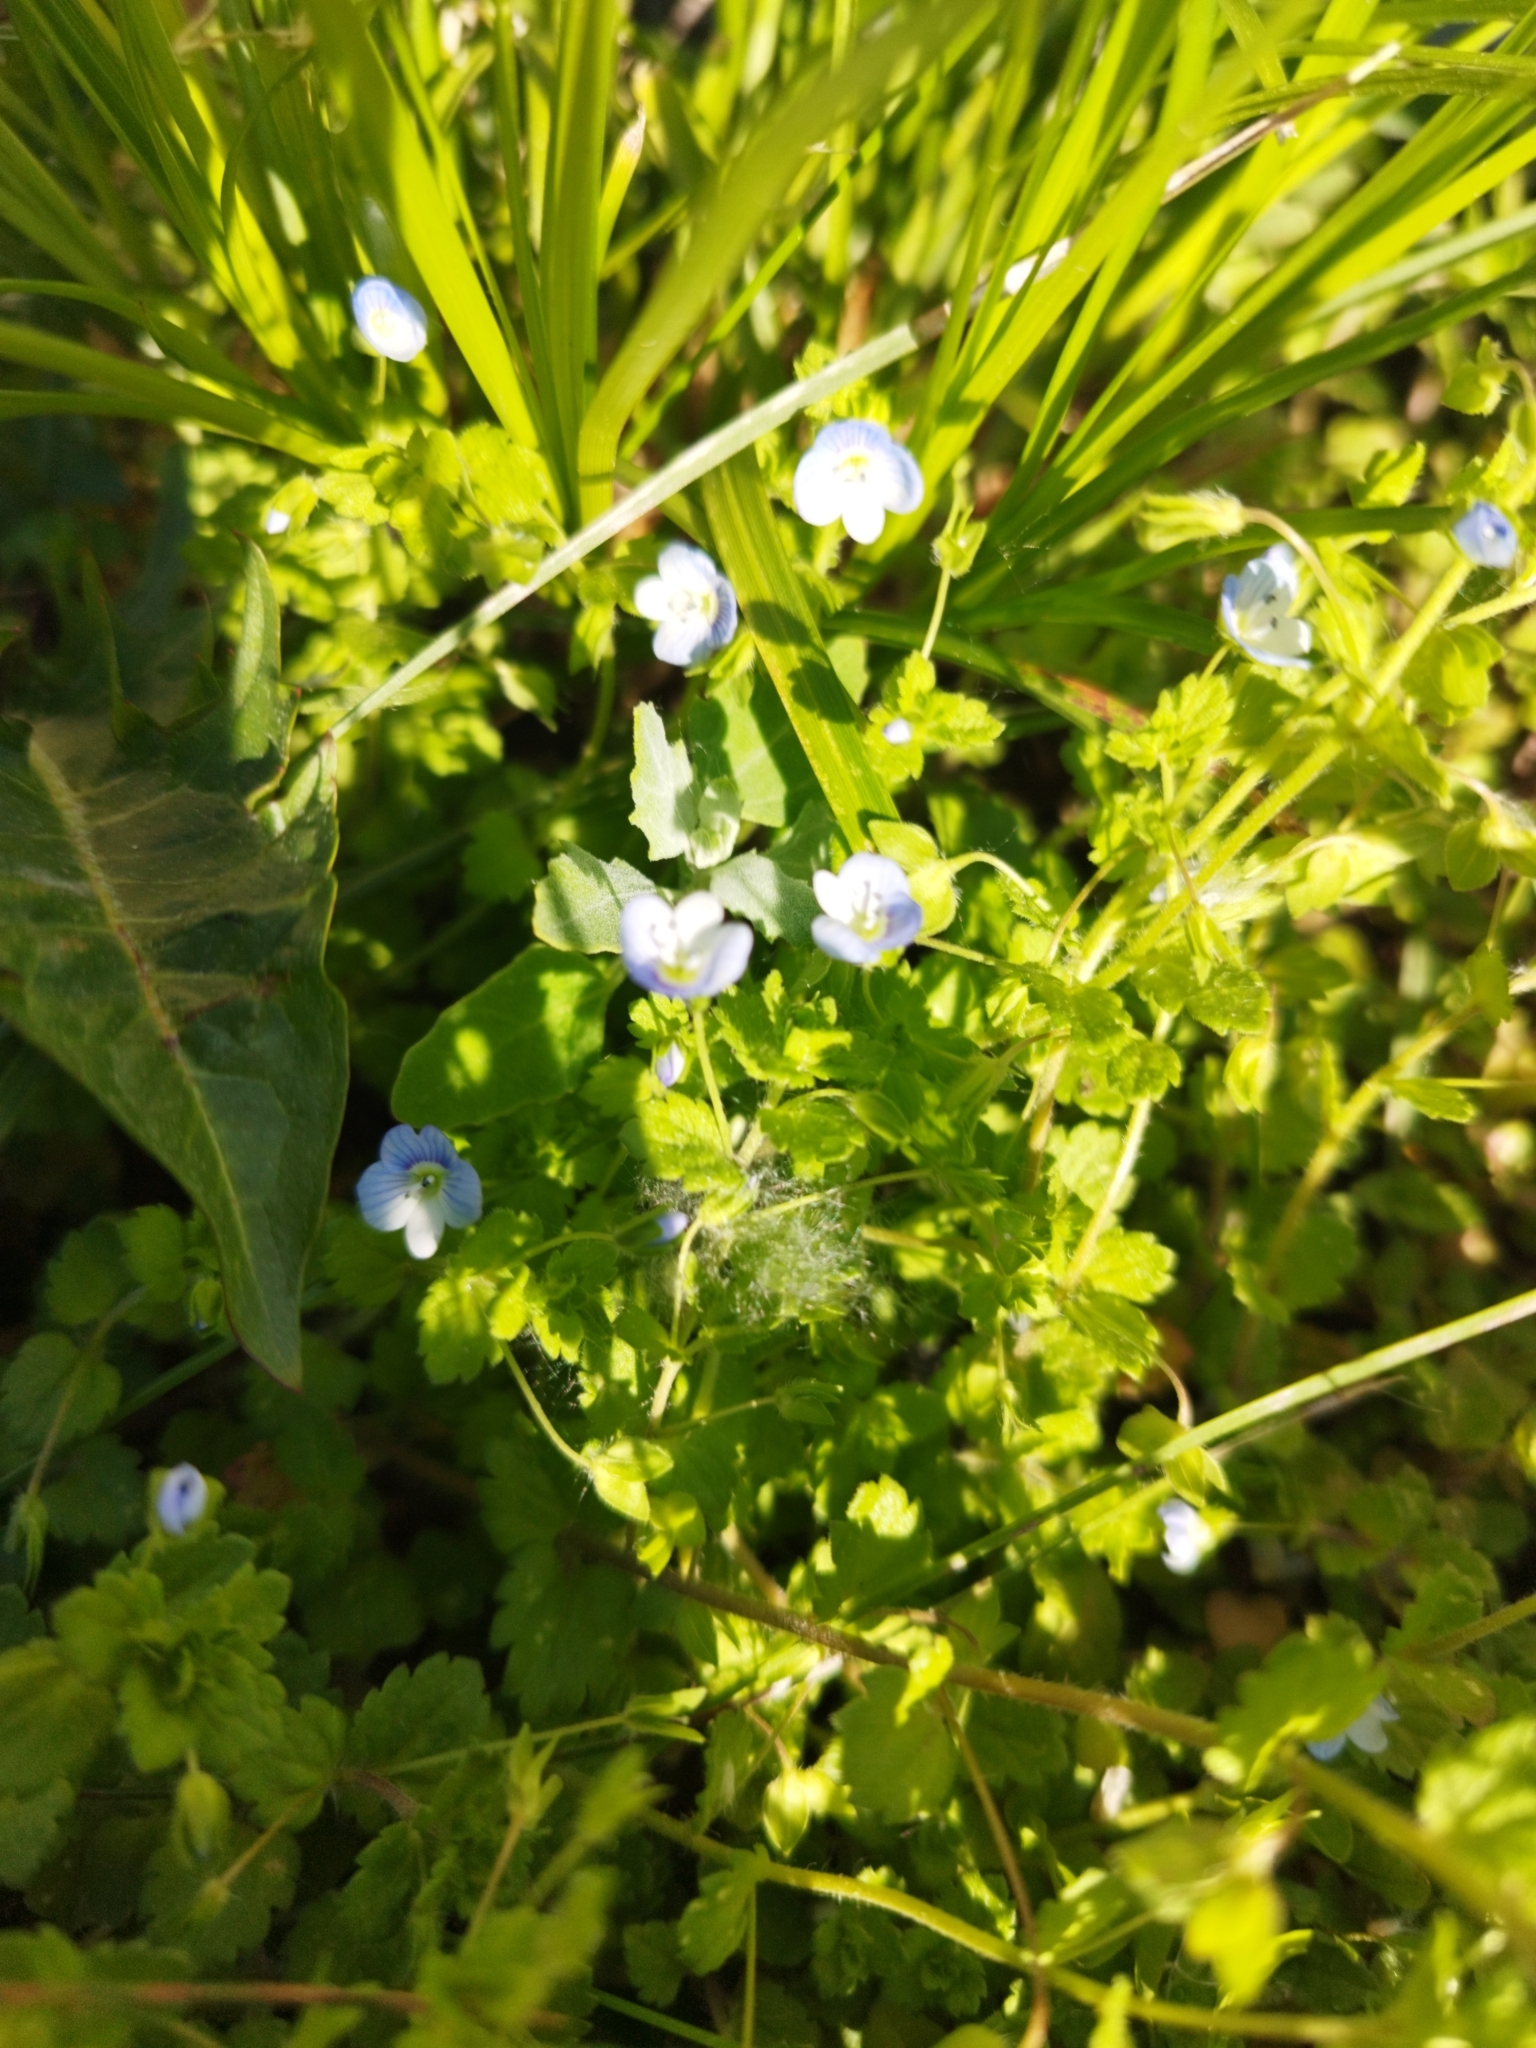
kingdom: Plantae
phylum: Tracheophyta
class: Magnoliopsida
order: Lamiales
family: Plantaginaceae
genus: Veronica
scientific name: Veronica persica
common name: Common field-speedwell
